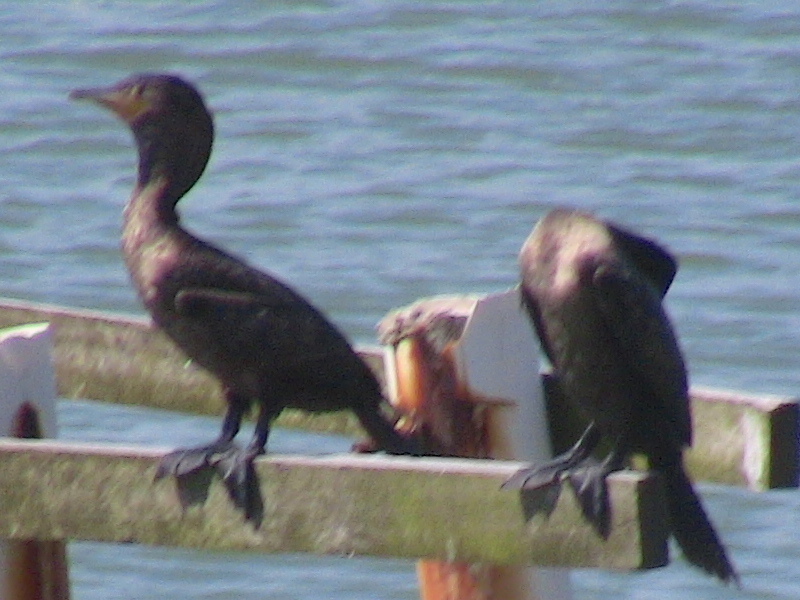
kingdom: Animalia
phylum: Chordata
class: Aves
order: Suliformes
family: Phalacrocoracidae
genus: Phalacrocorax
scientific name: Phalacrocorax brasilianus
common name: Neotropic cormorant
